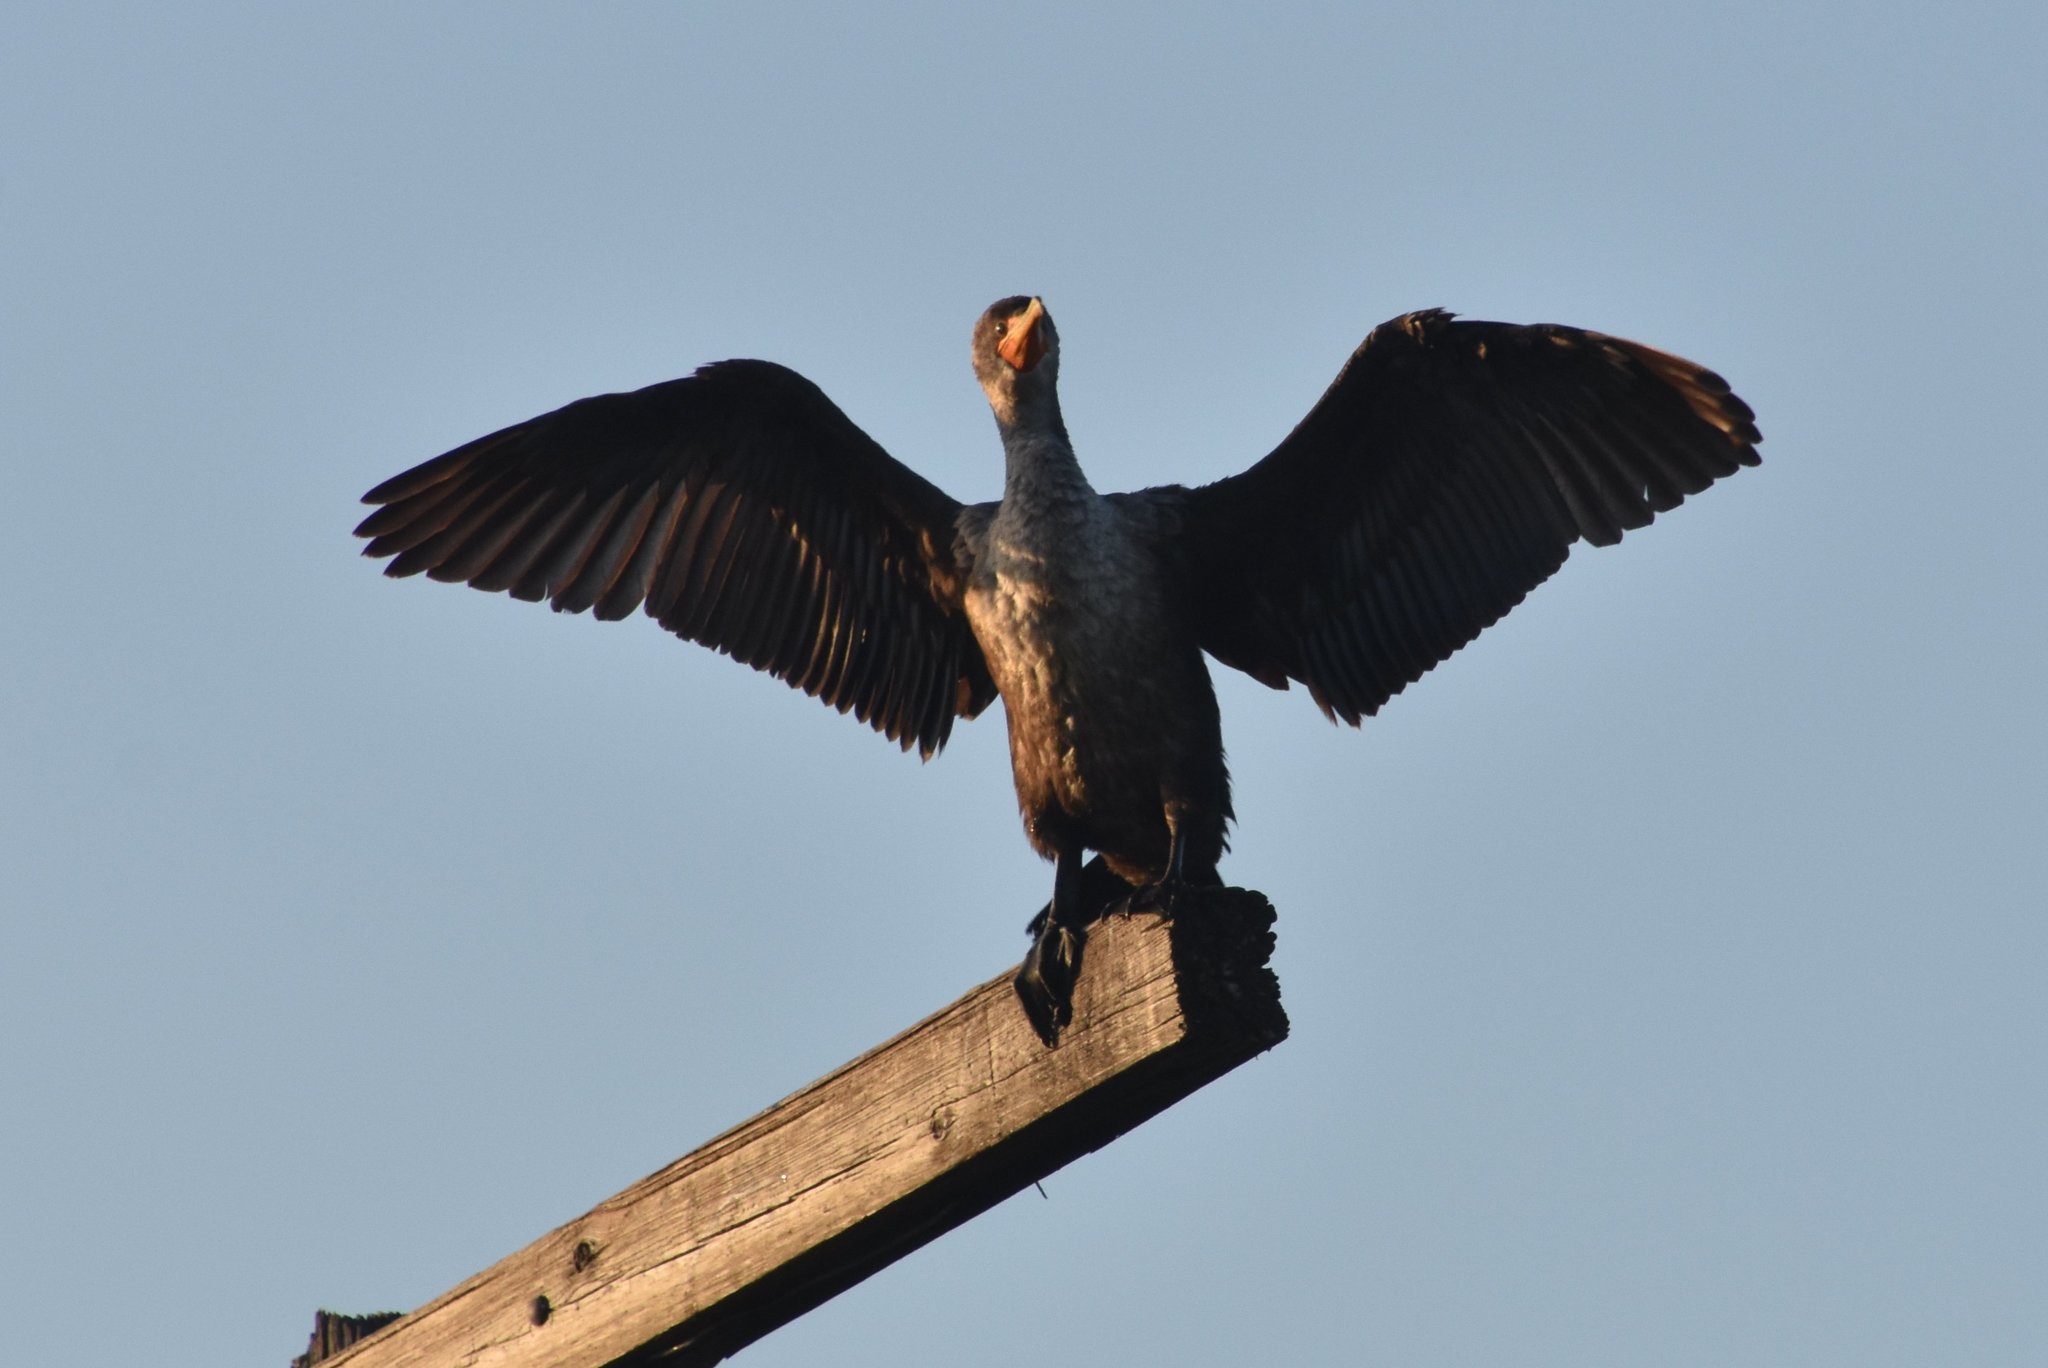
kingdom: Animalia
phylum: Chordata
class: Aves
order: Suliformes
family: Phalacrocoracidae
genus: Phalacrocorax
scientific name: Phalacrocorax auritus
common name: Double-crested cormorant
